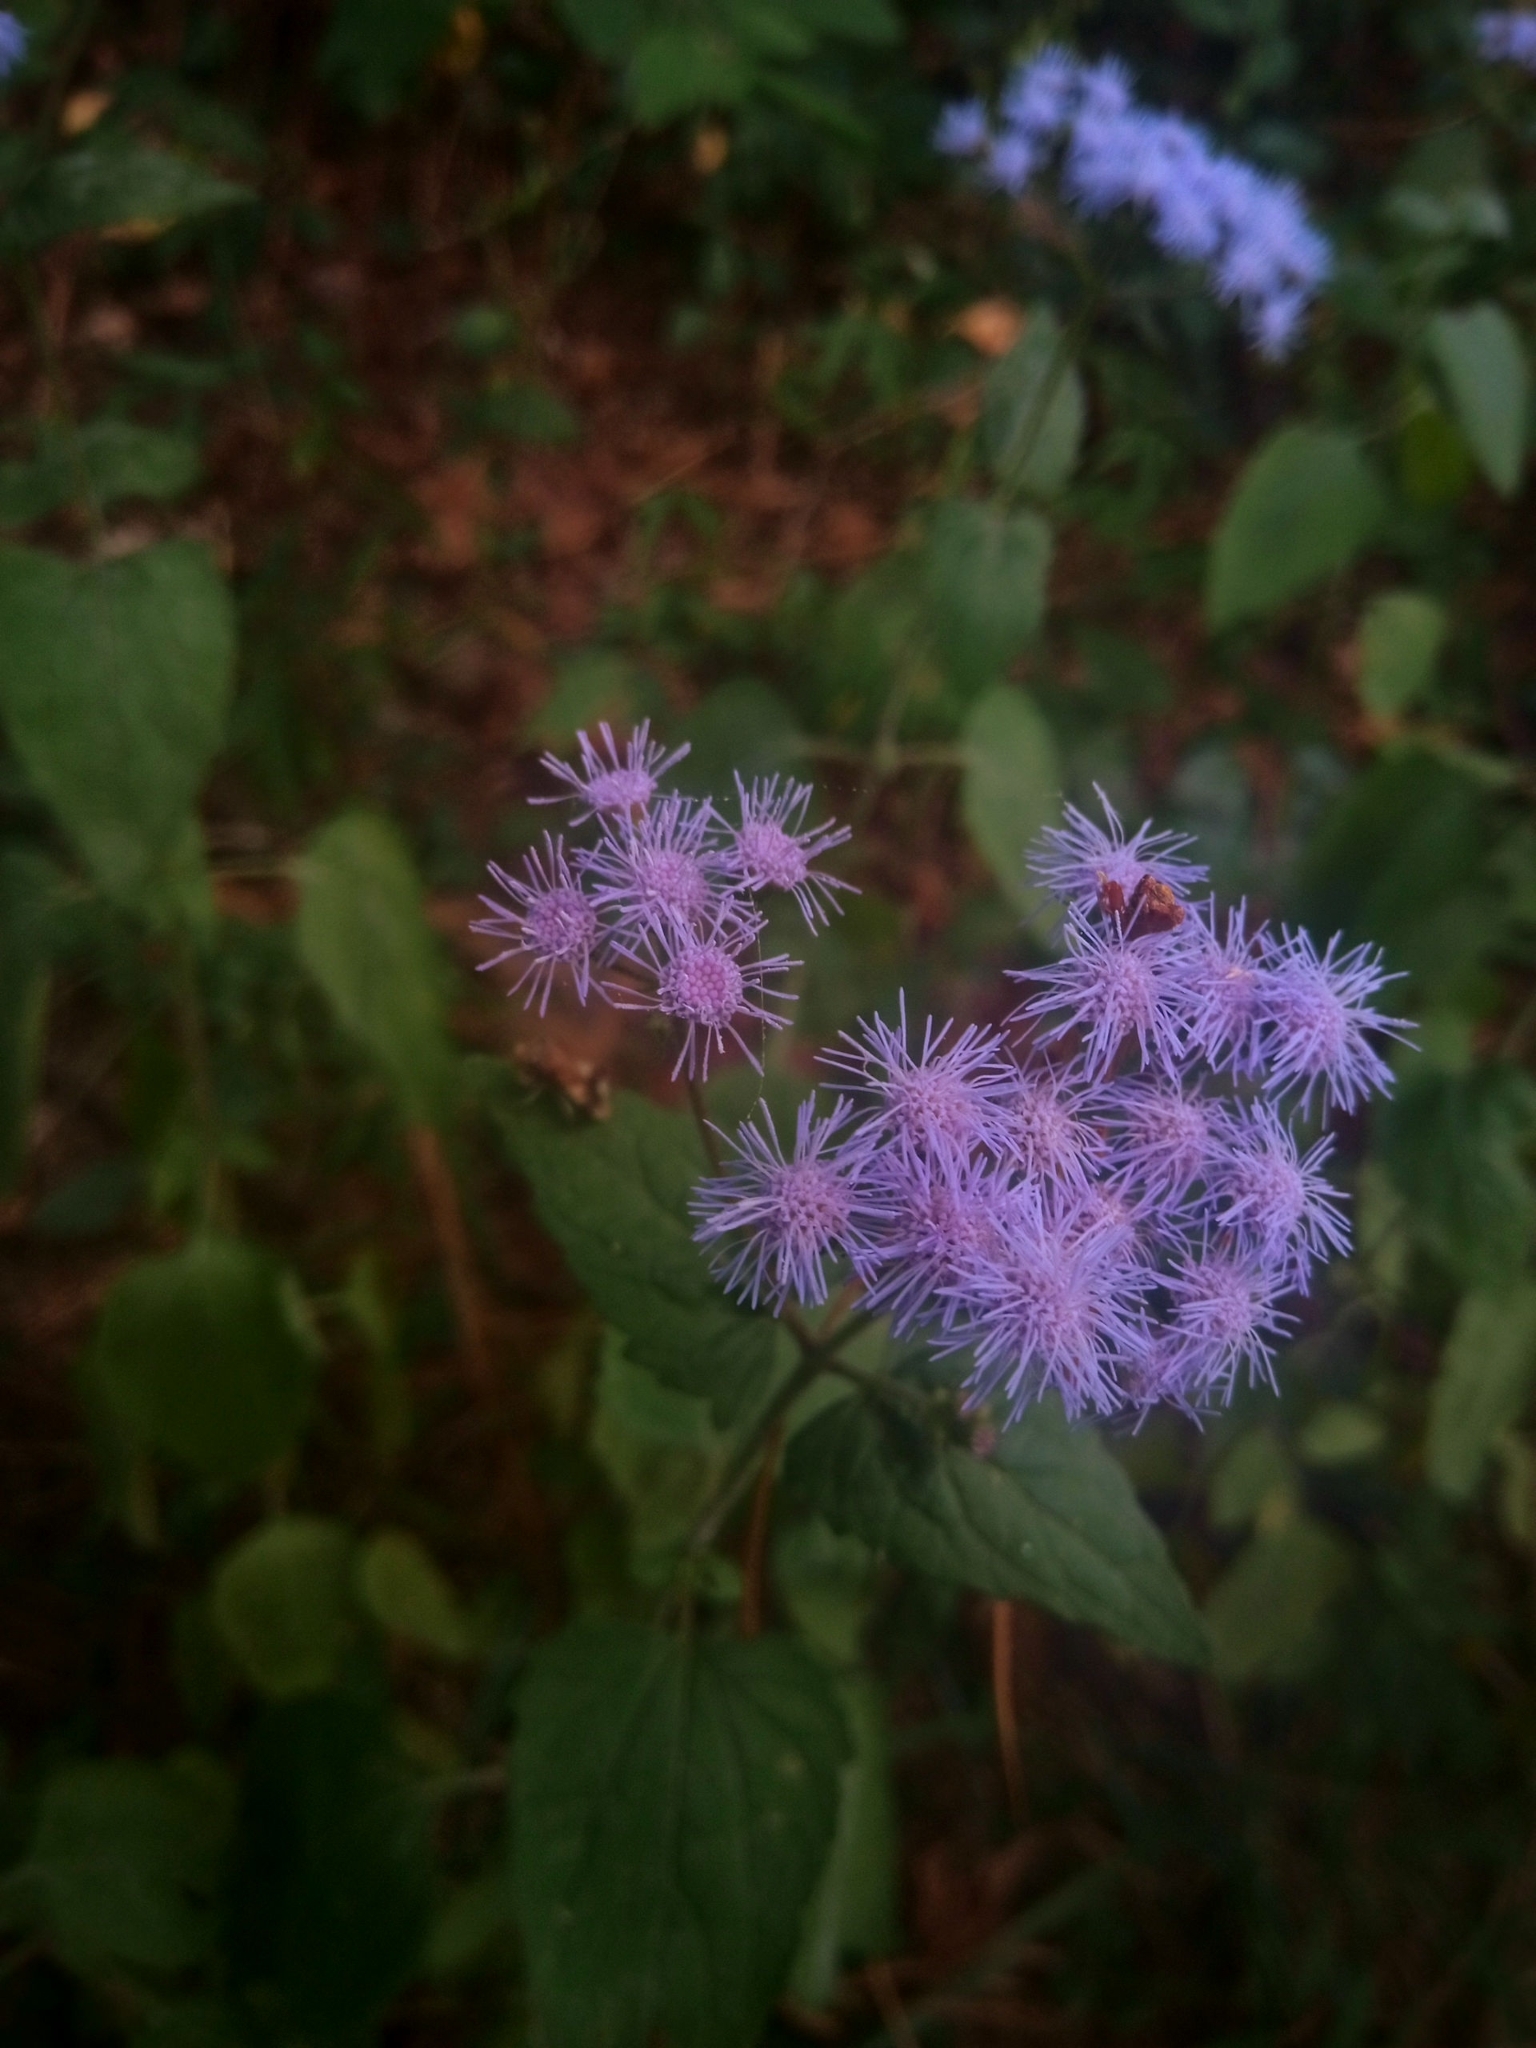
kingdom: Plantae
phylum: Tracheophyta
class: Magnoliopsida
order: Asterales
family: Asteraceae
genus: Conoclinium
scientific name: Conoclinium coelestinum
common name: Blue mistflower
